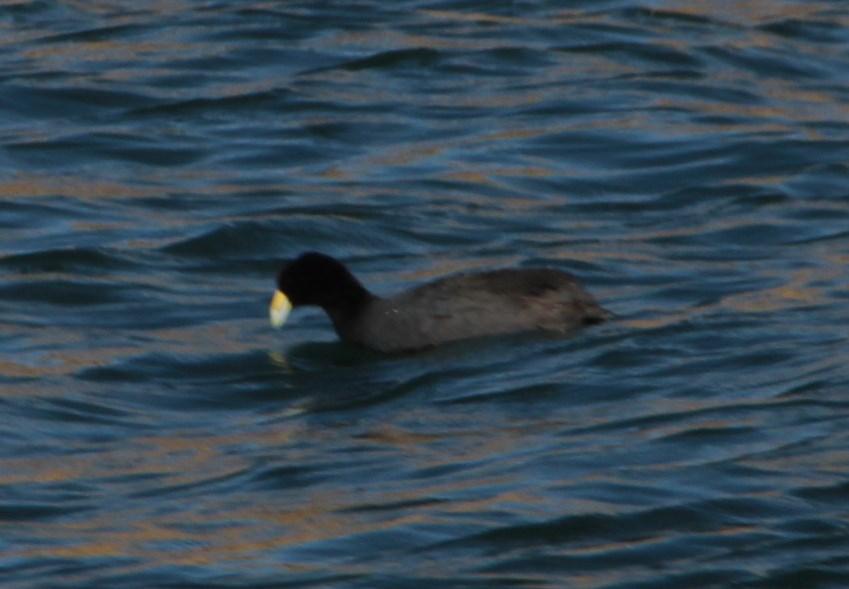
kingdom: Animalia
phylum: Chordata
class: Aves
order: Gruiformes
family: Rallidae
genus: Fulica
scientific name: Fulica ardesiaca
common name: Andean coot
